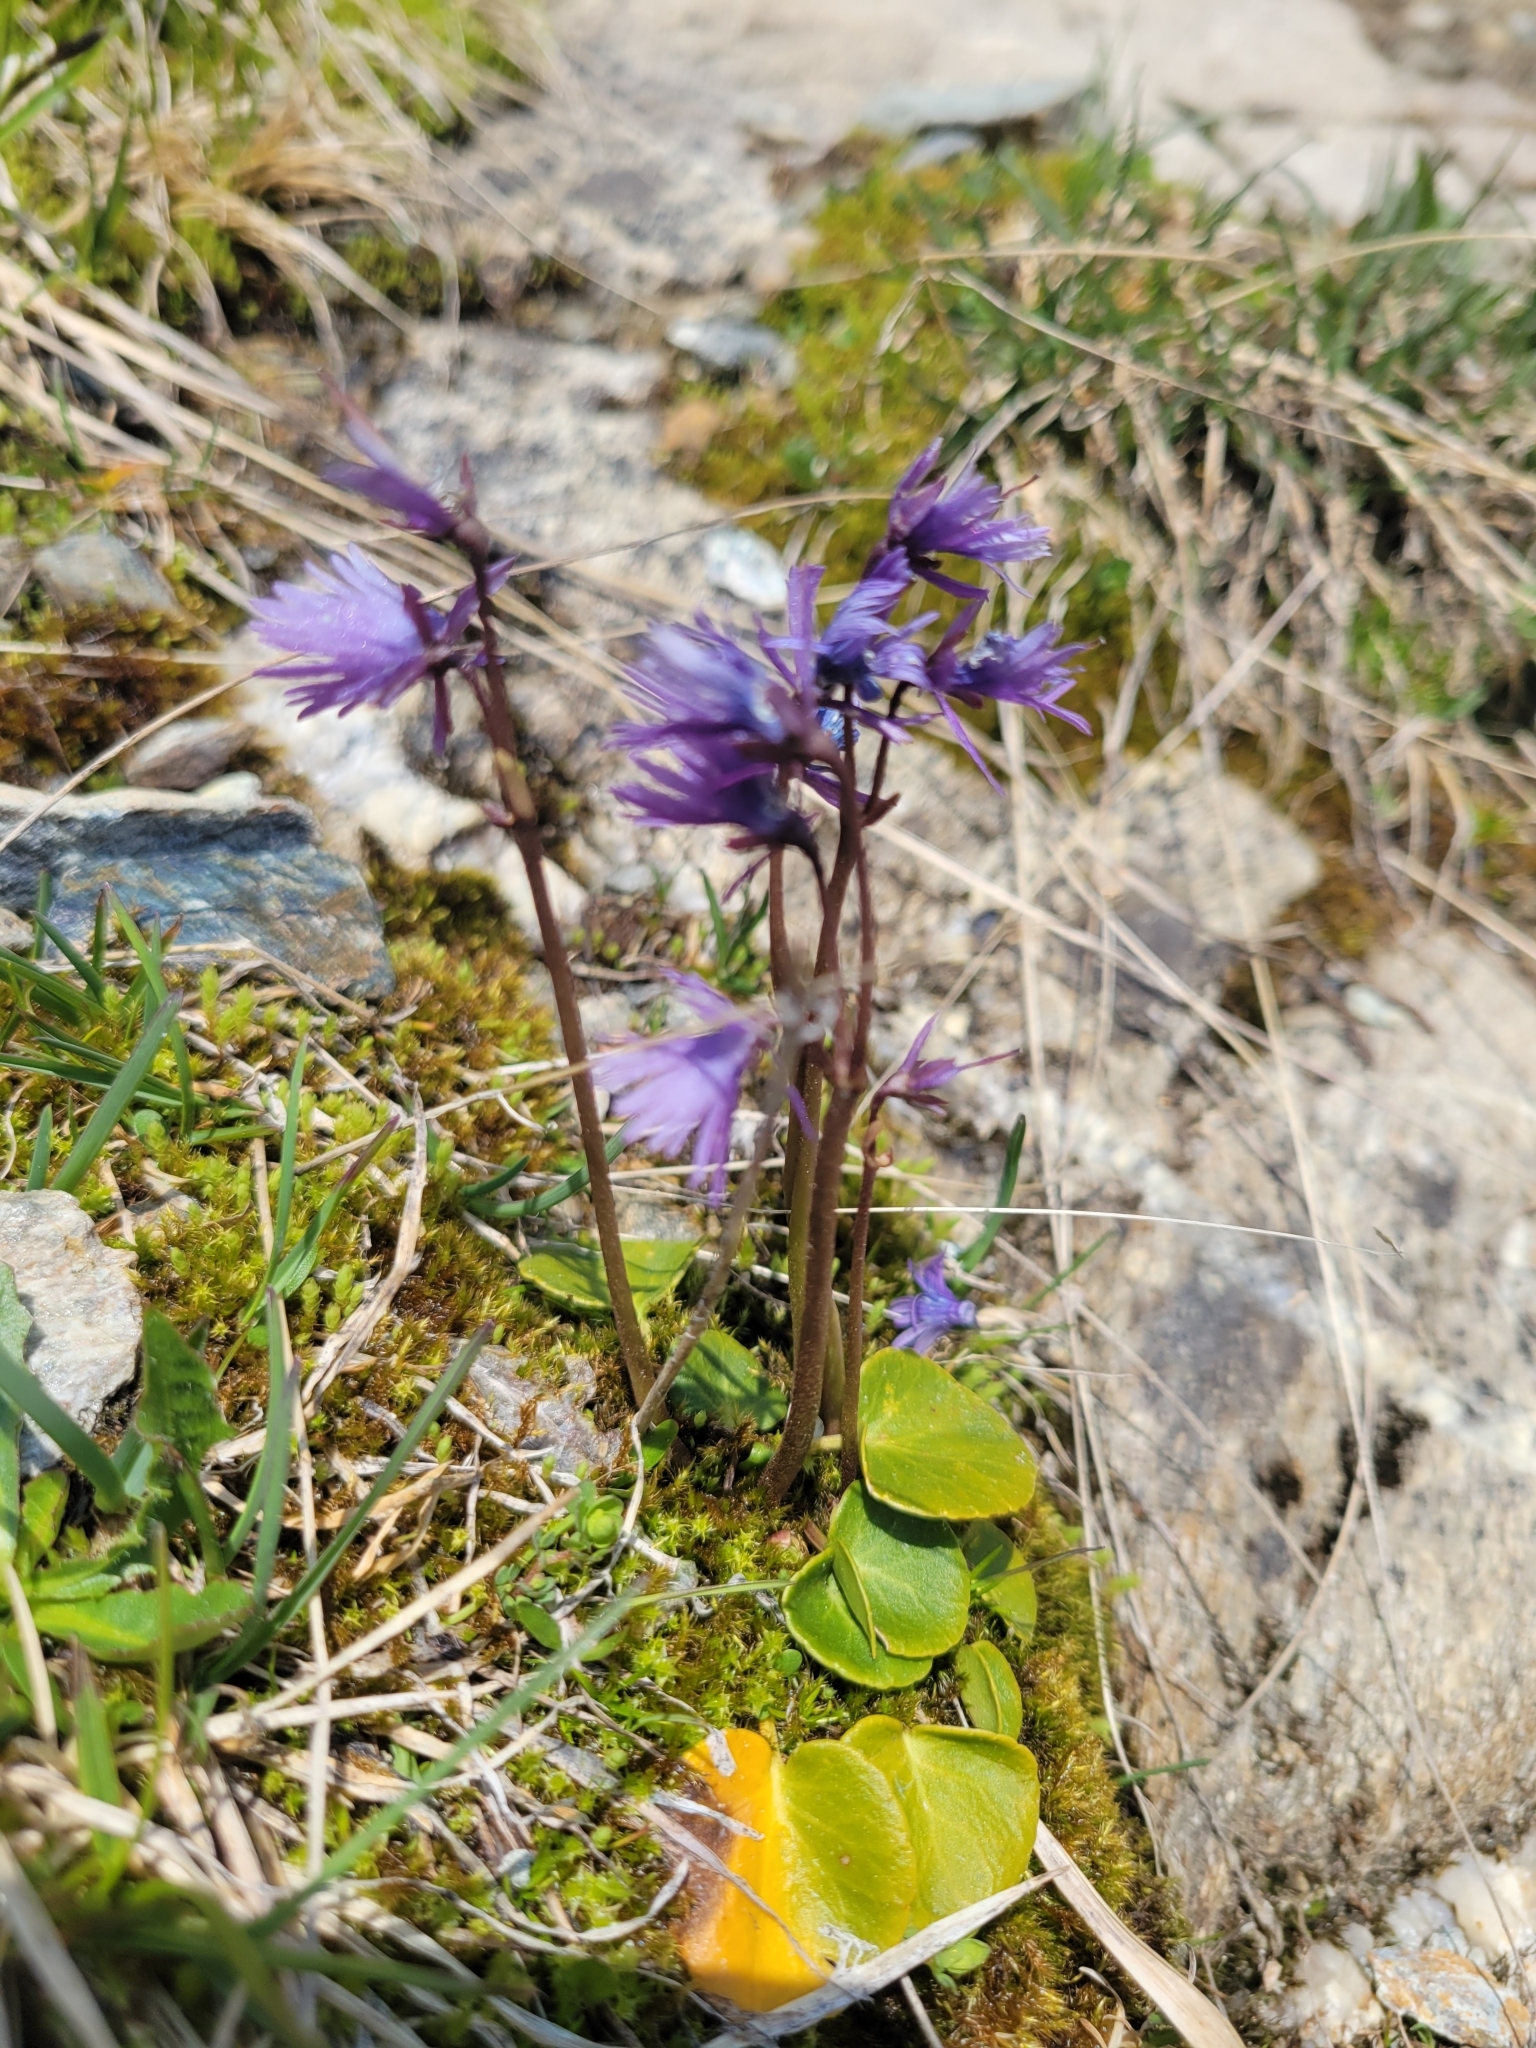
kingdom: Plantae
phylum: Tracheophyta
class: Magnoliopsida
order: Ericales
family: Primulaceae
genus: Soldanella
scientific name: Soldanella alpina
